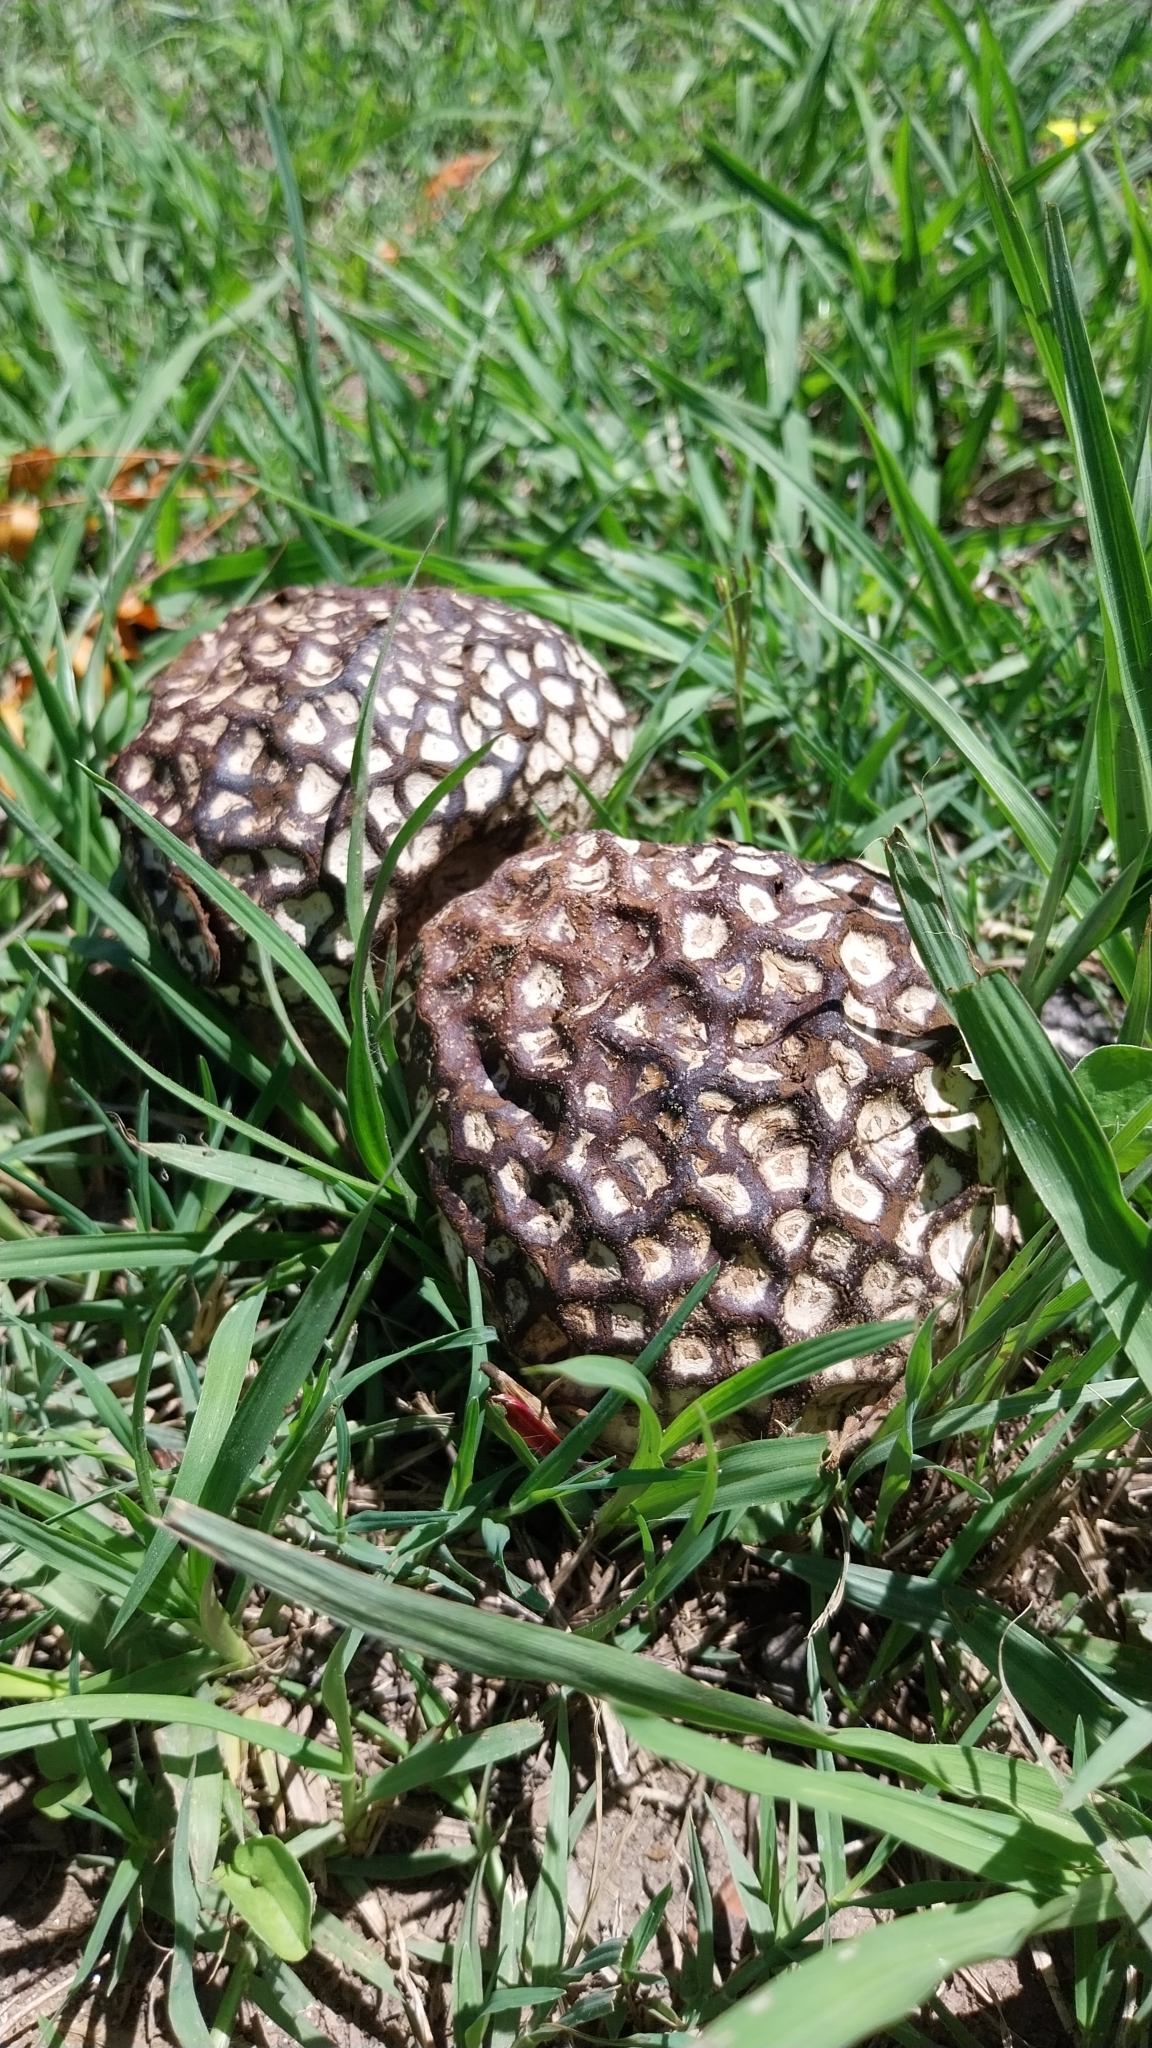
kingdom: Fungi
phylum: Basidiomycota
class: Agaricomycetes
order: Agaricales
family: Lycoperdaceae
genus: Calvatia
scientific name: Calvatia cyathiformis
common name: Purple-spored puffball
